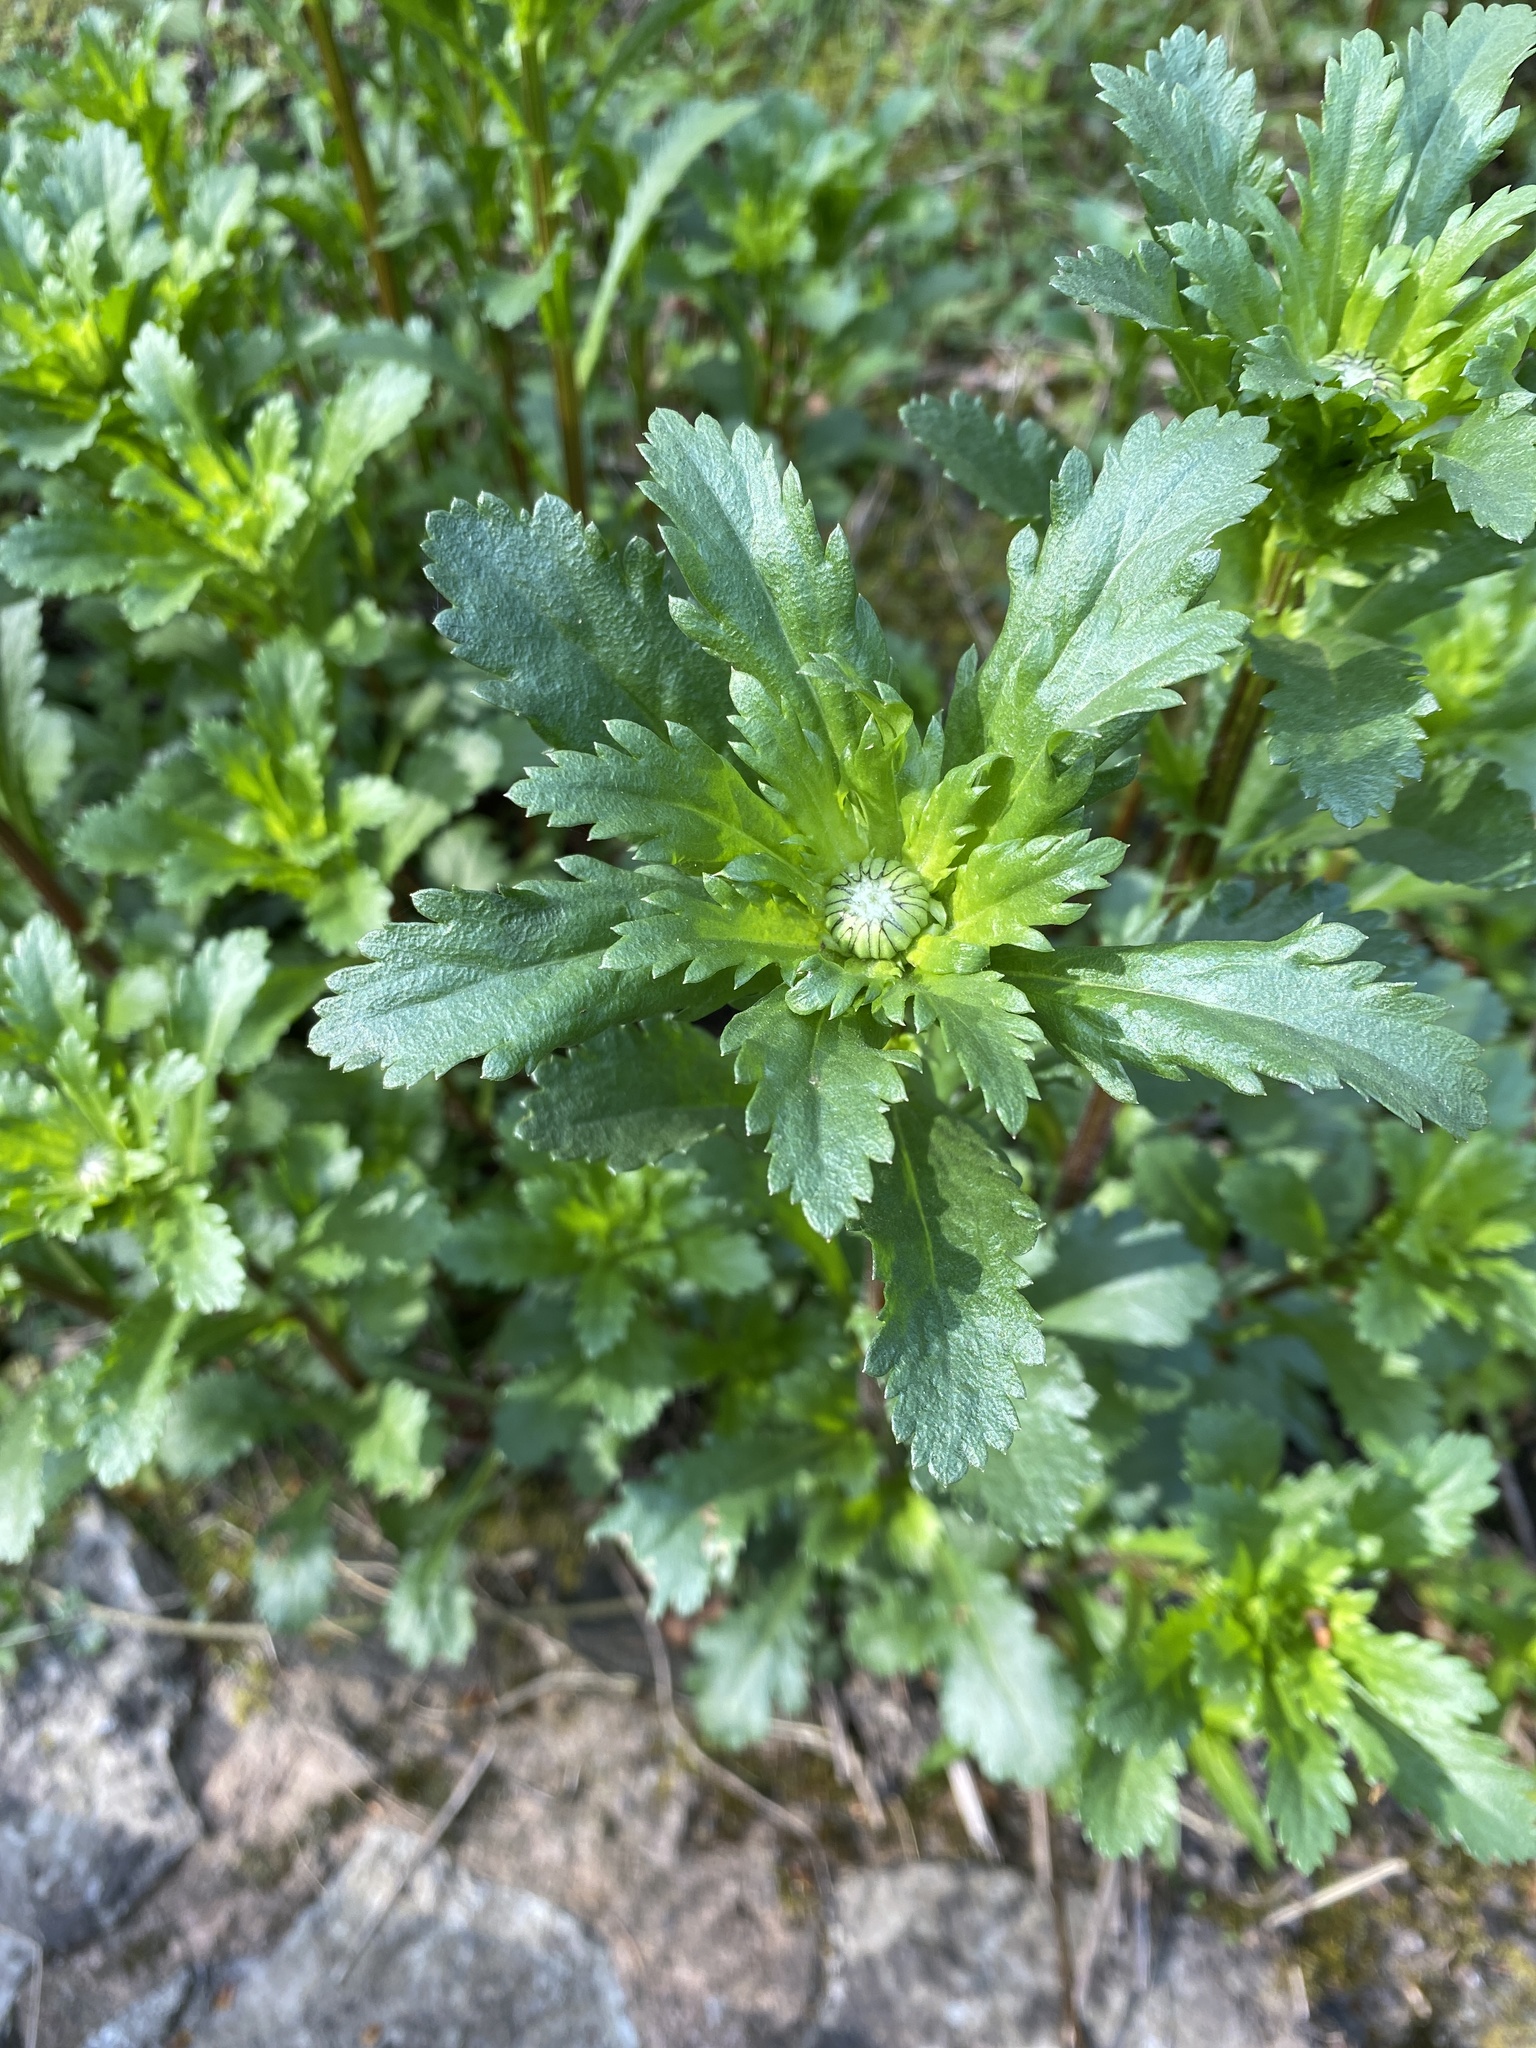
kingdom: Plantae
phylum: Tracheophyta
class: Magnoliopsida
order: Asterales
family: Asteraceae
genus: Leucanthemum
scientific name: Leucanthemum vulgare
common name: Oxeye daisy
